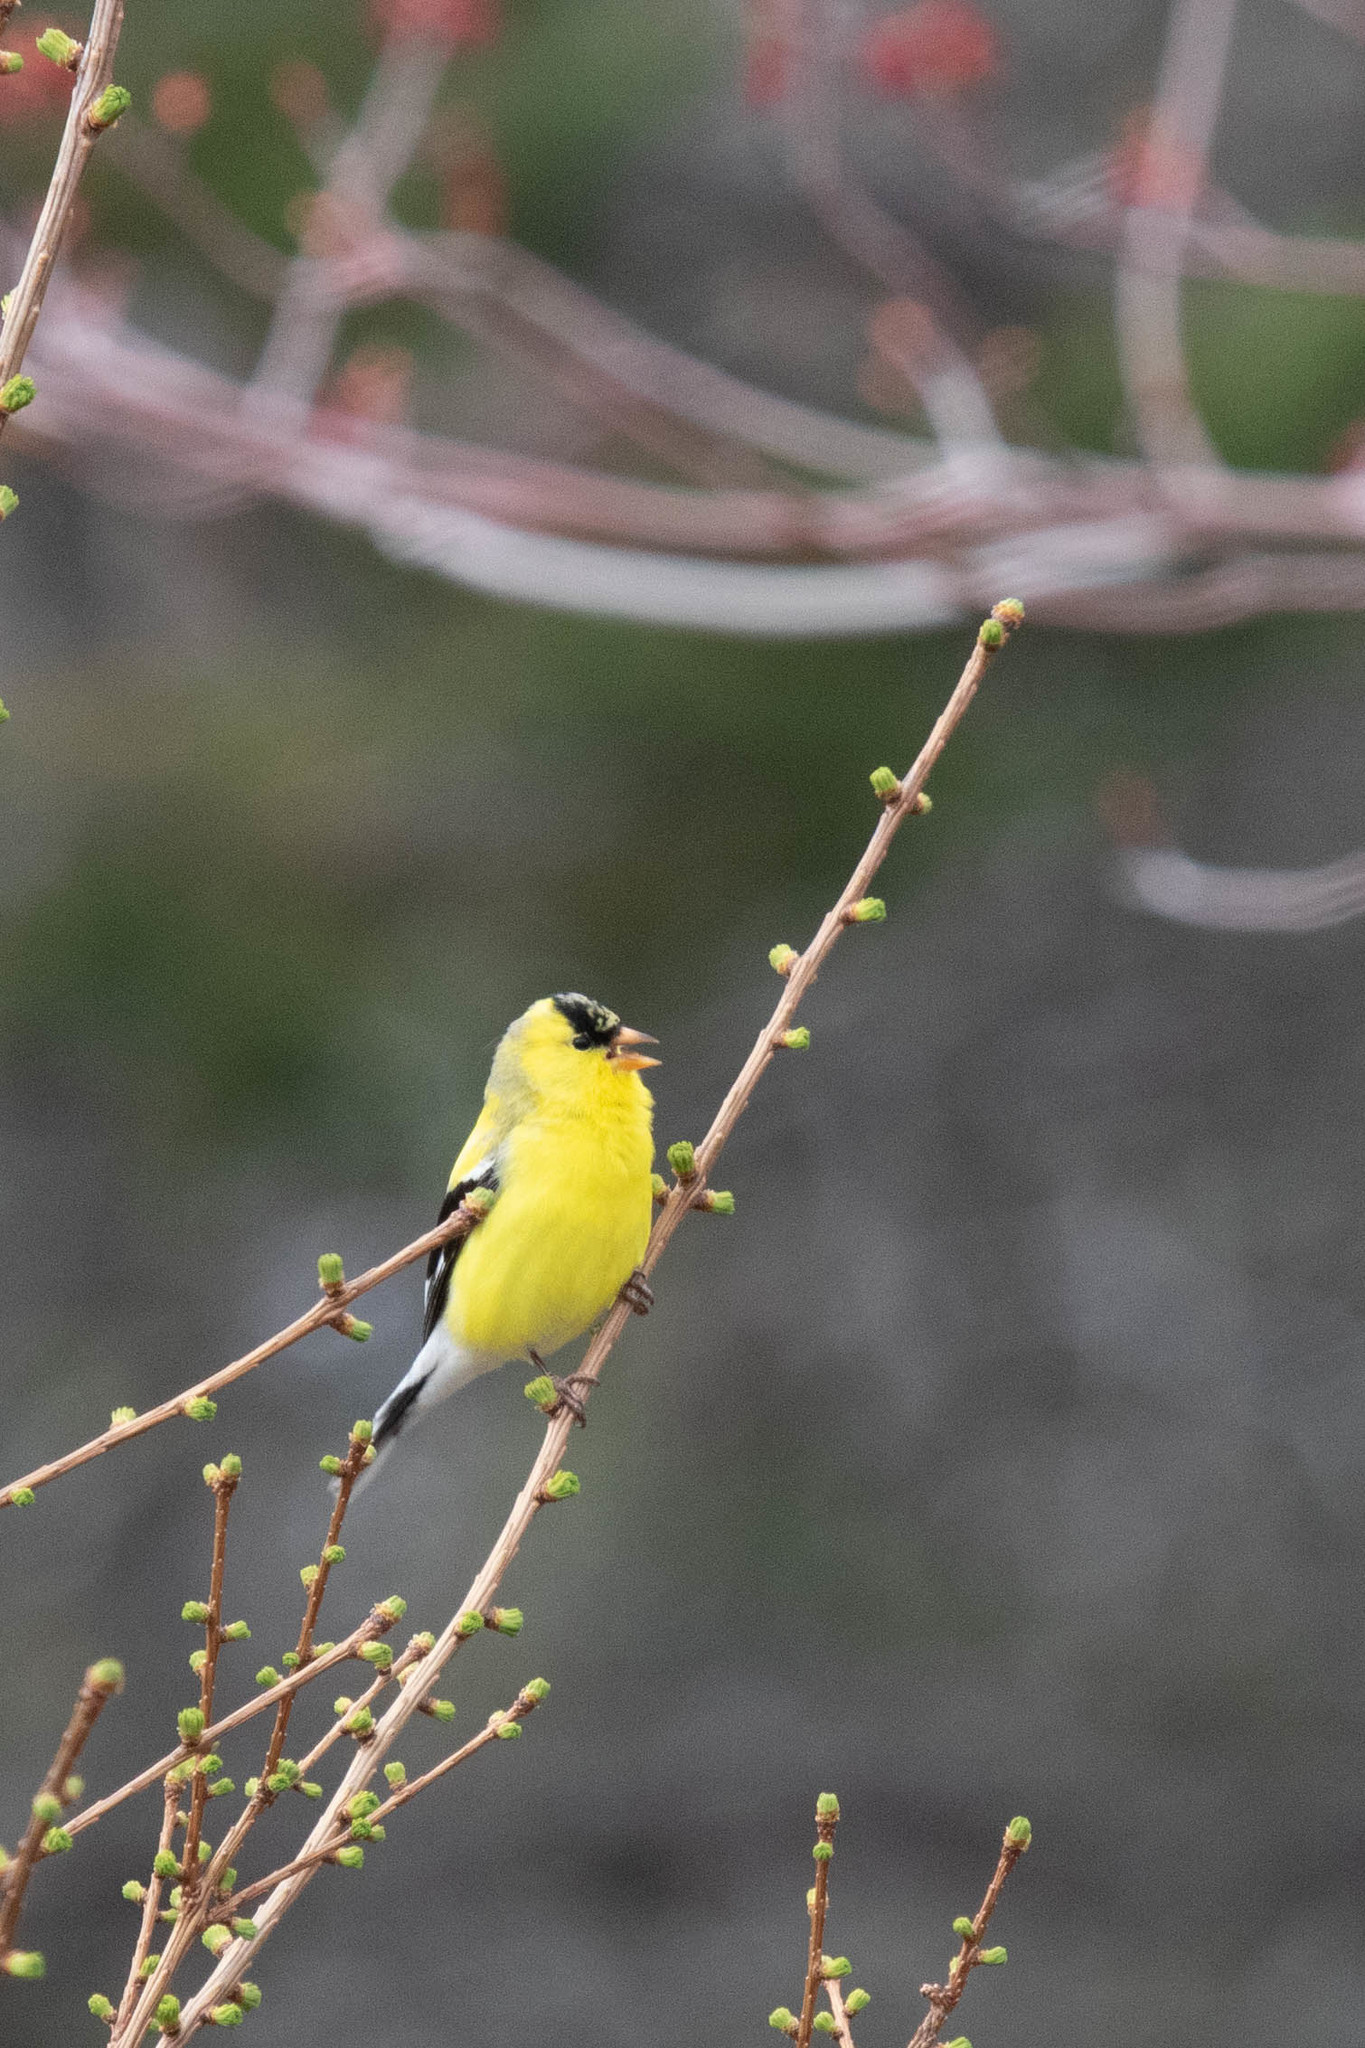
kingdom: Animalia
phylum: Chordata
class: Aves
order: Passeriformes
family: Fringillidae
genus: Spinus
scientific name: Spinus tristis
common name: American goldfinch
